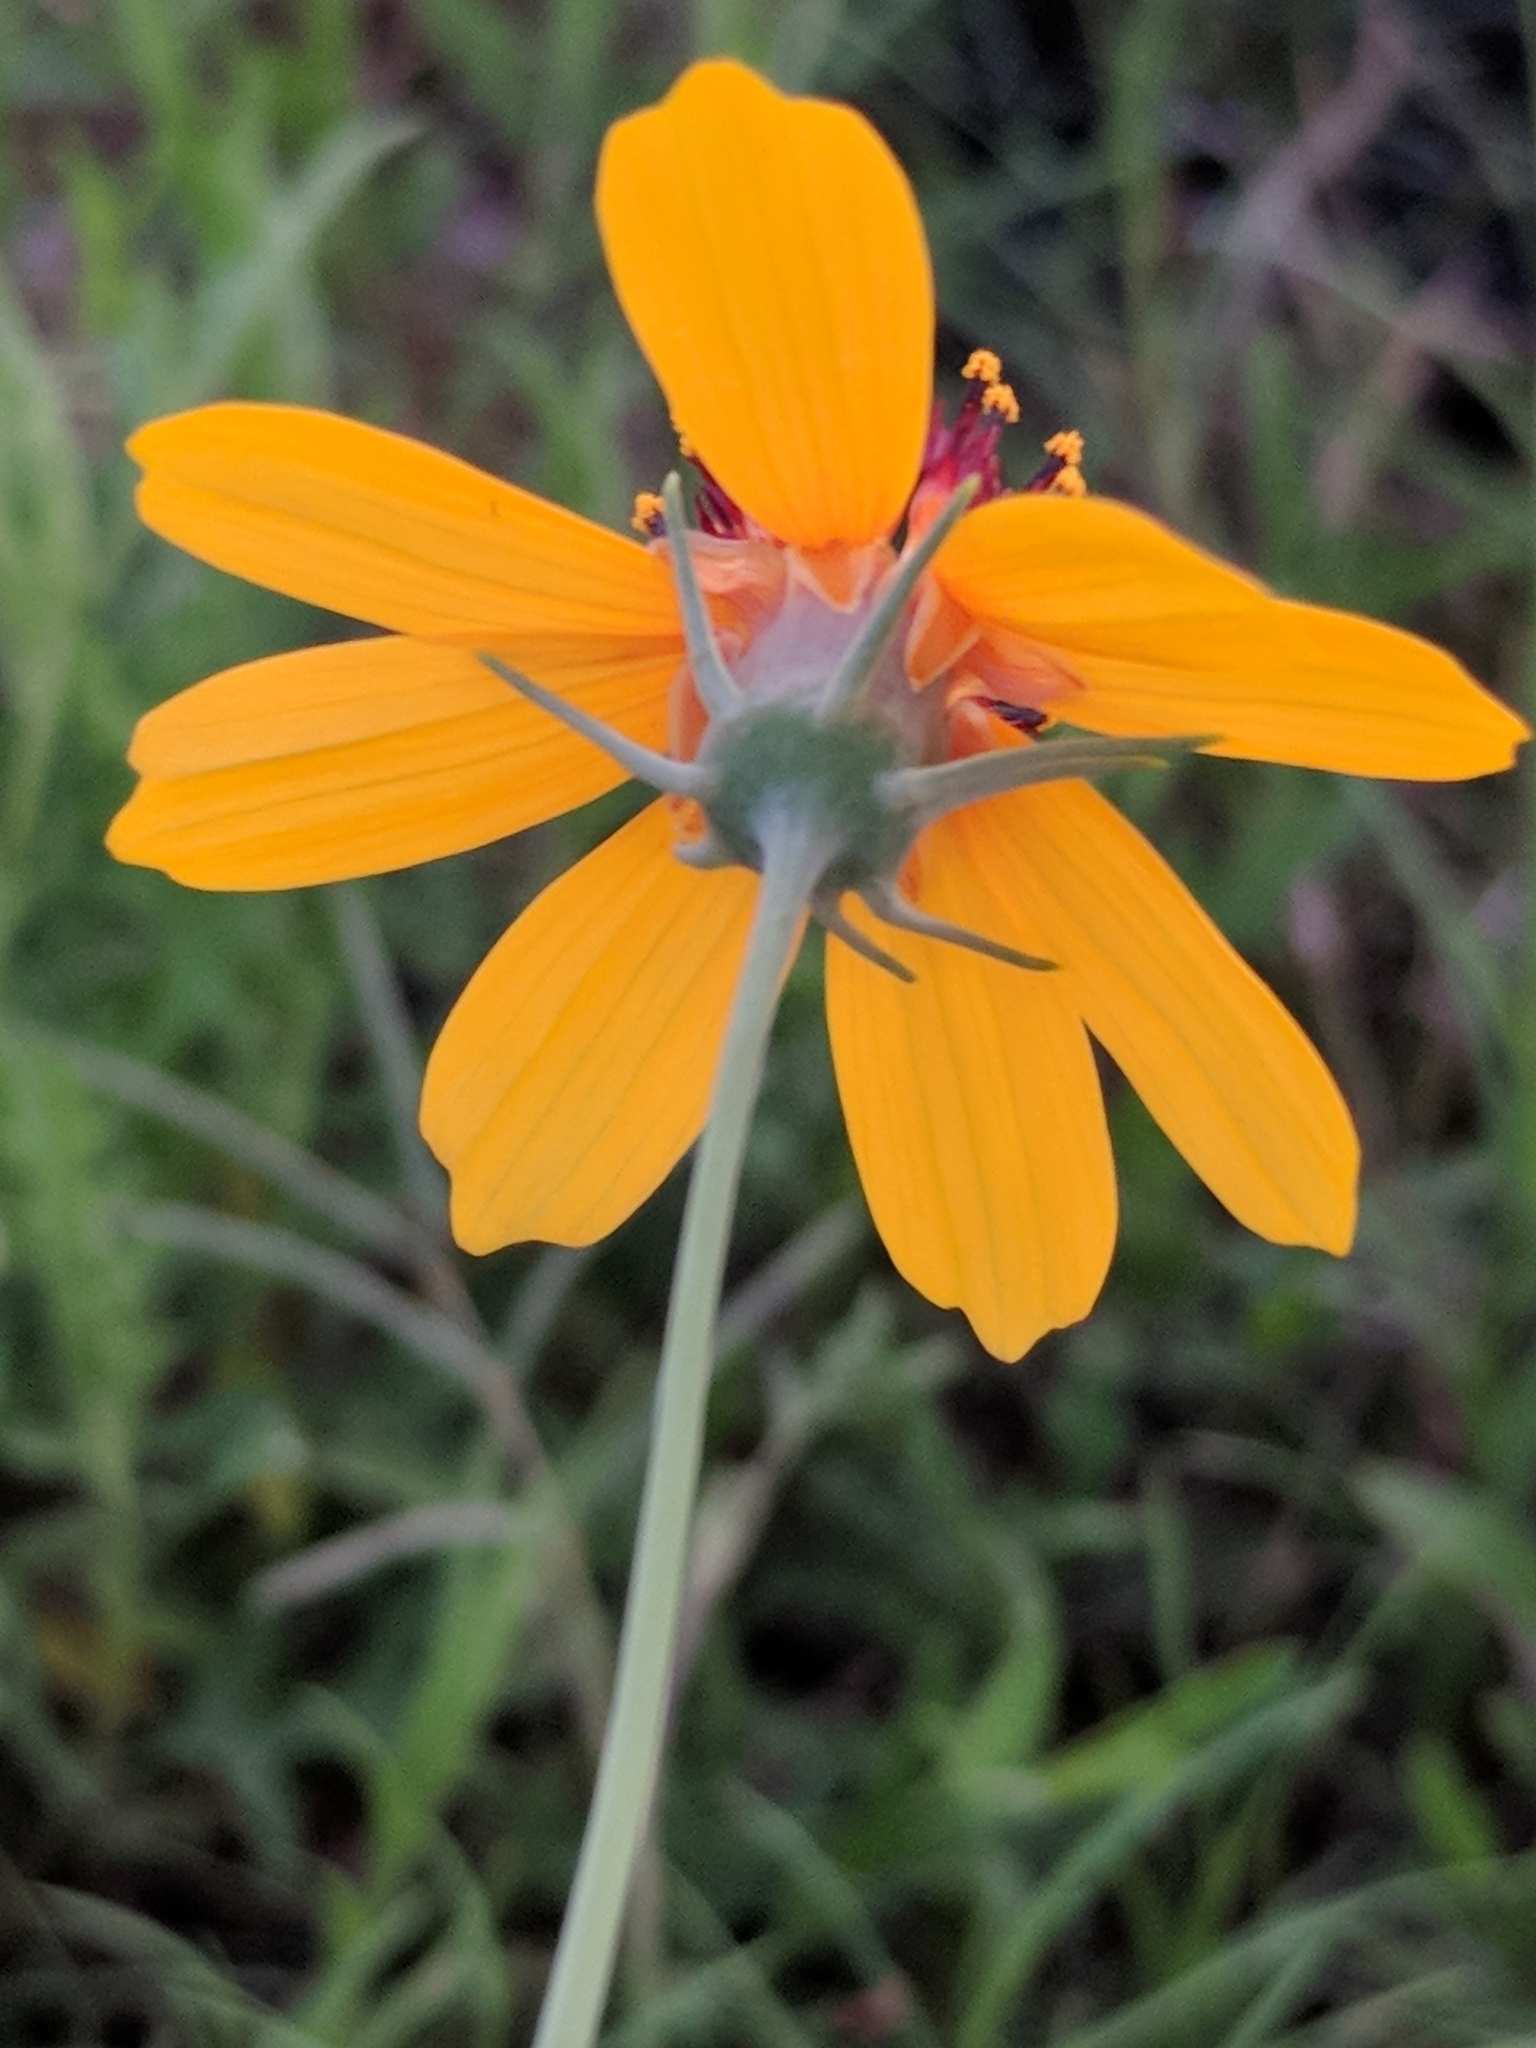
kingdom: Plantae
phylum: Tracheophyta
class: Magnoliopsida
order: Asterales
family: Asteraceae
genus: Thelesperma
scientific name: Thelesperma filifolium
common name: Stiff greenthread
